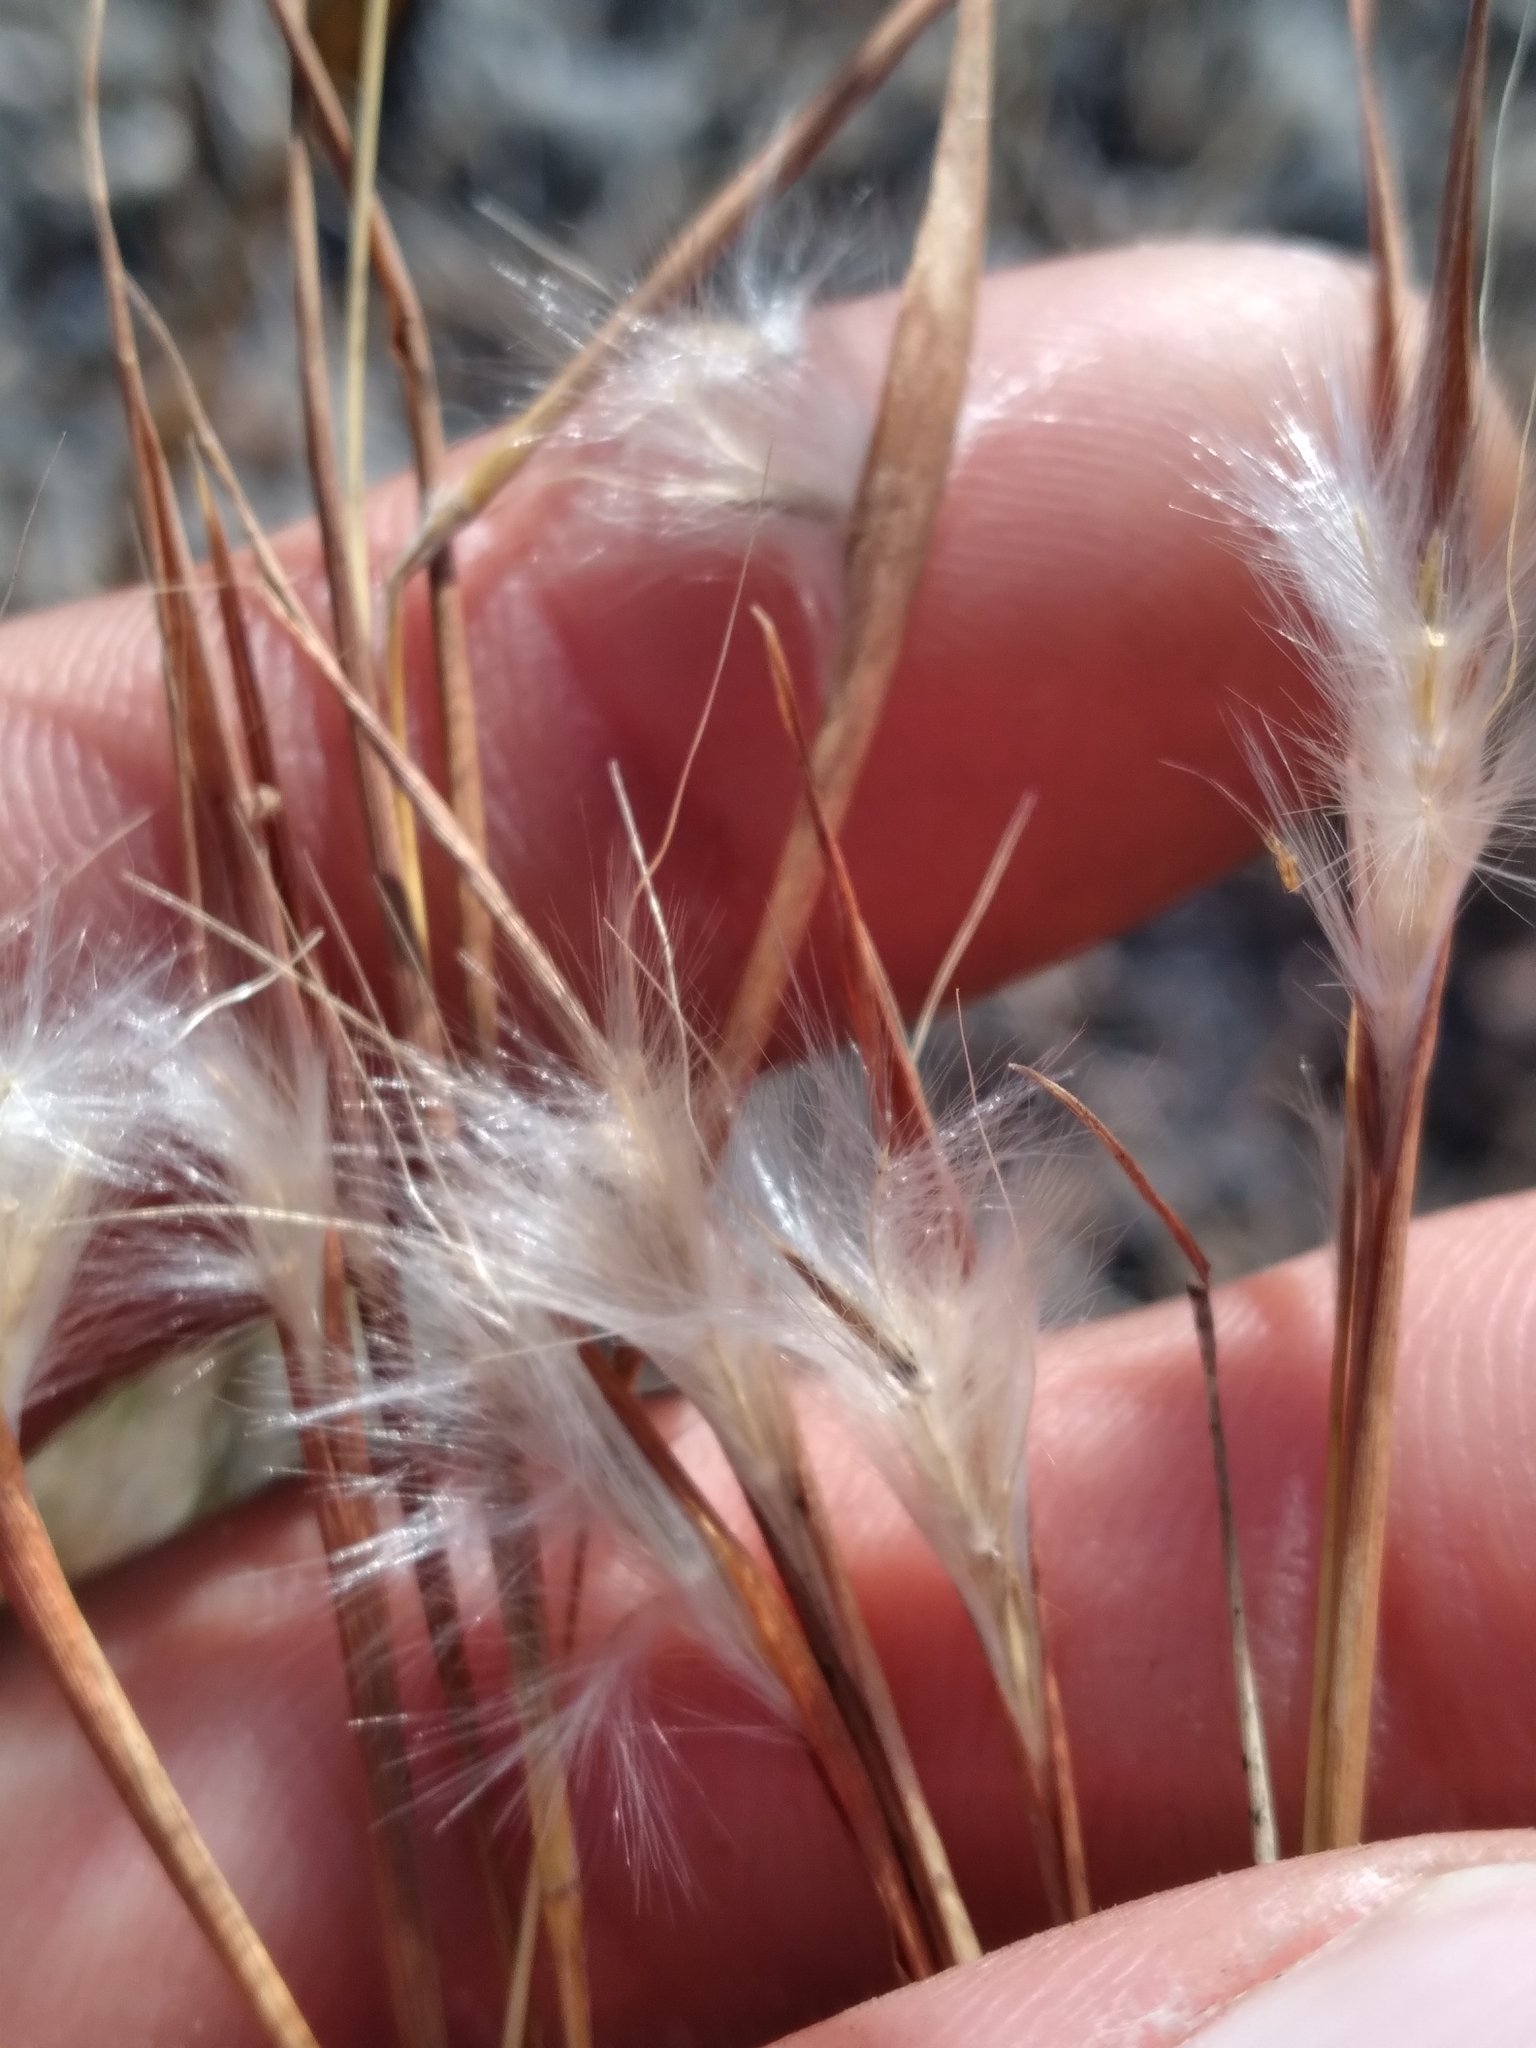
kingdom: Plantae
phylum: Tracheophyta
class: Liliopsida
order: Poales
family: Poaceae
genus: Andropogon
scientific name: Andropogon tracyi
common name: Tracy's bluestem
